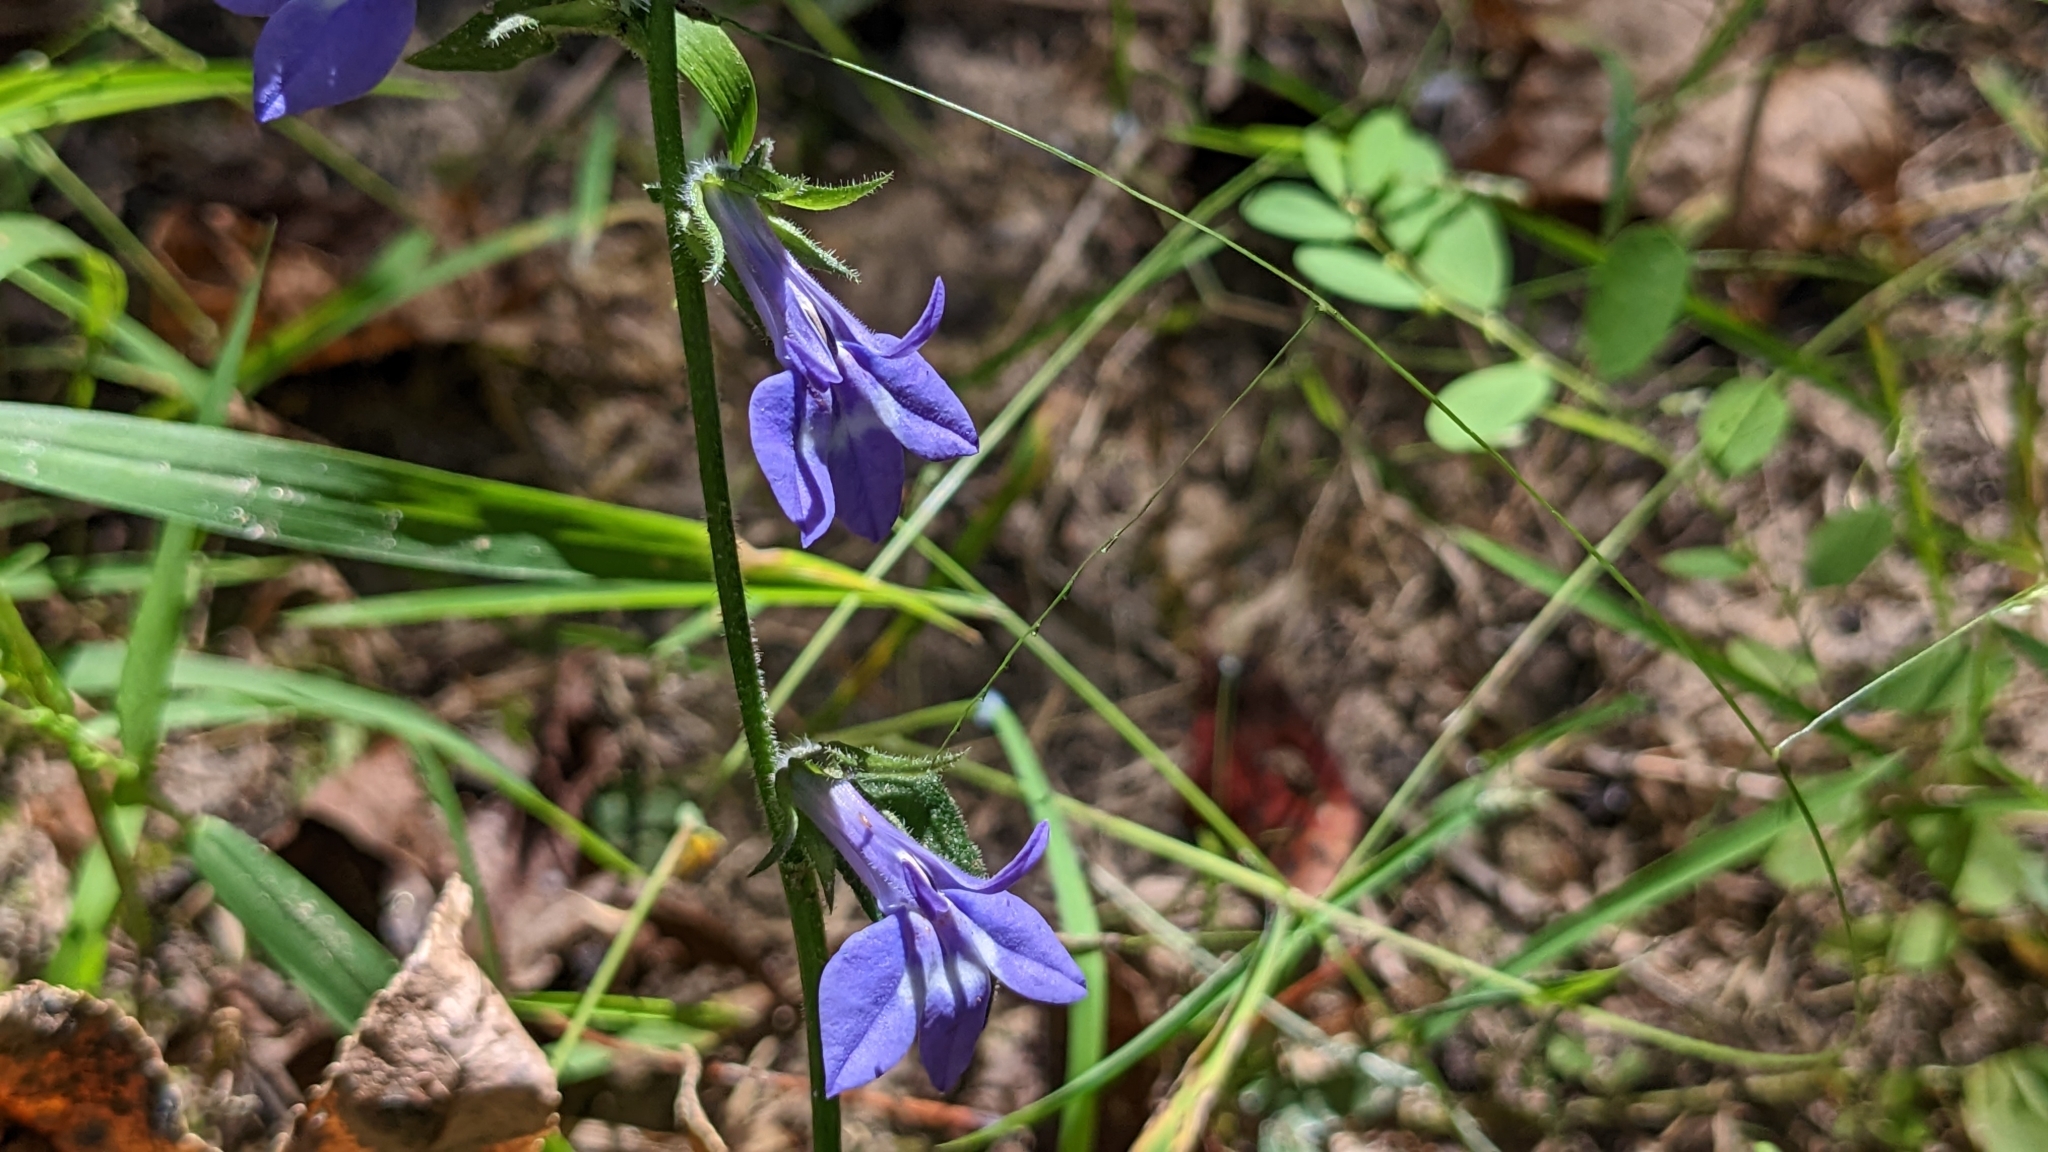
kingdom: Plantae
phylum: Tracheophyta
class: Magnoliopsida
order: Asterales
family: Campanulaceae
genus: Lobelia
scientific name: Lobelia reverchonii
